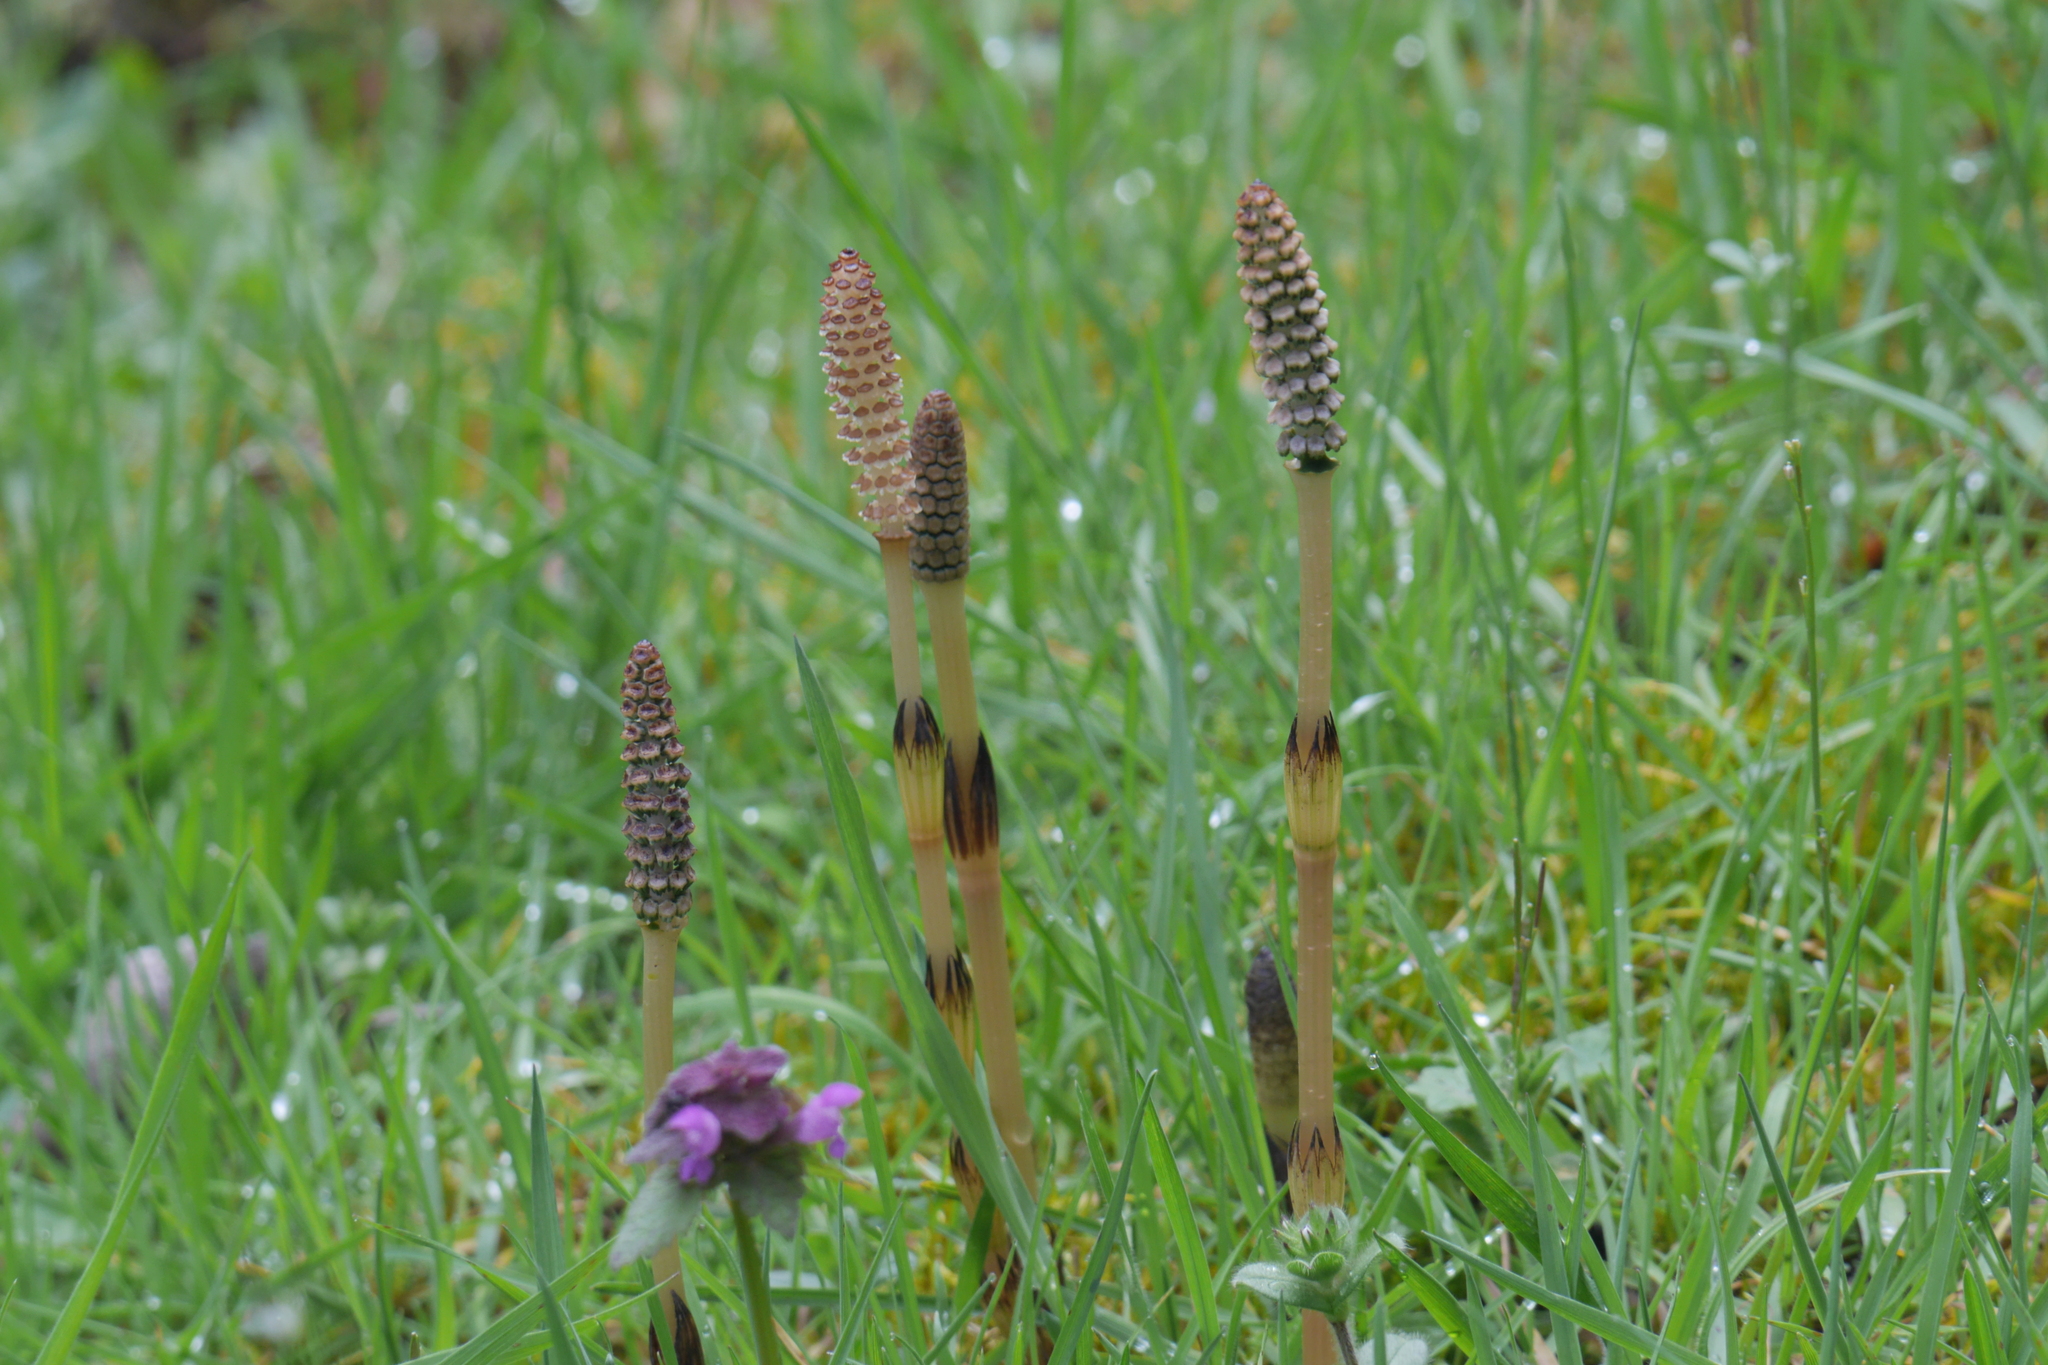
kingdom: Plantae
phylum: Tracheophyta
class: Polypodiopsida
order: Equisetales
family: Equisetaceae
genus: Equisetum
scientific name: Equisetum arvense
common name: Field horsetail
